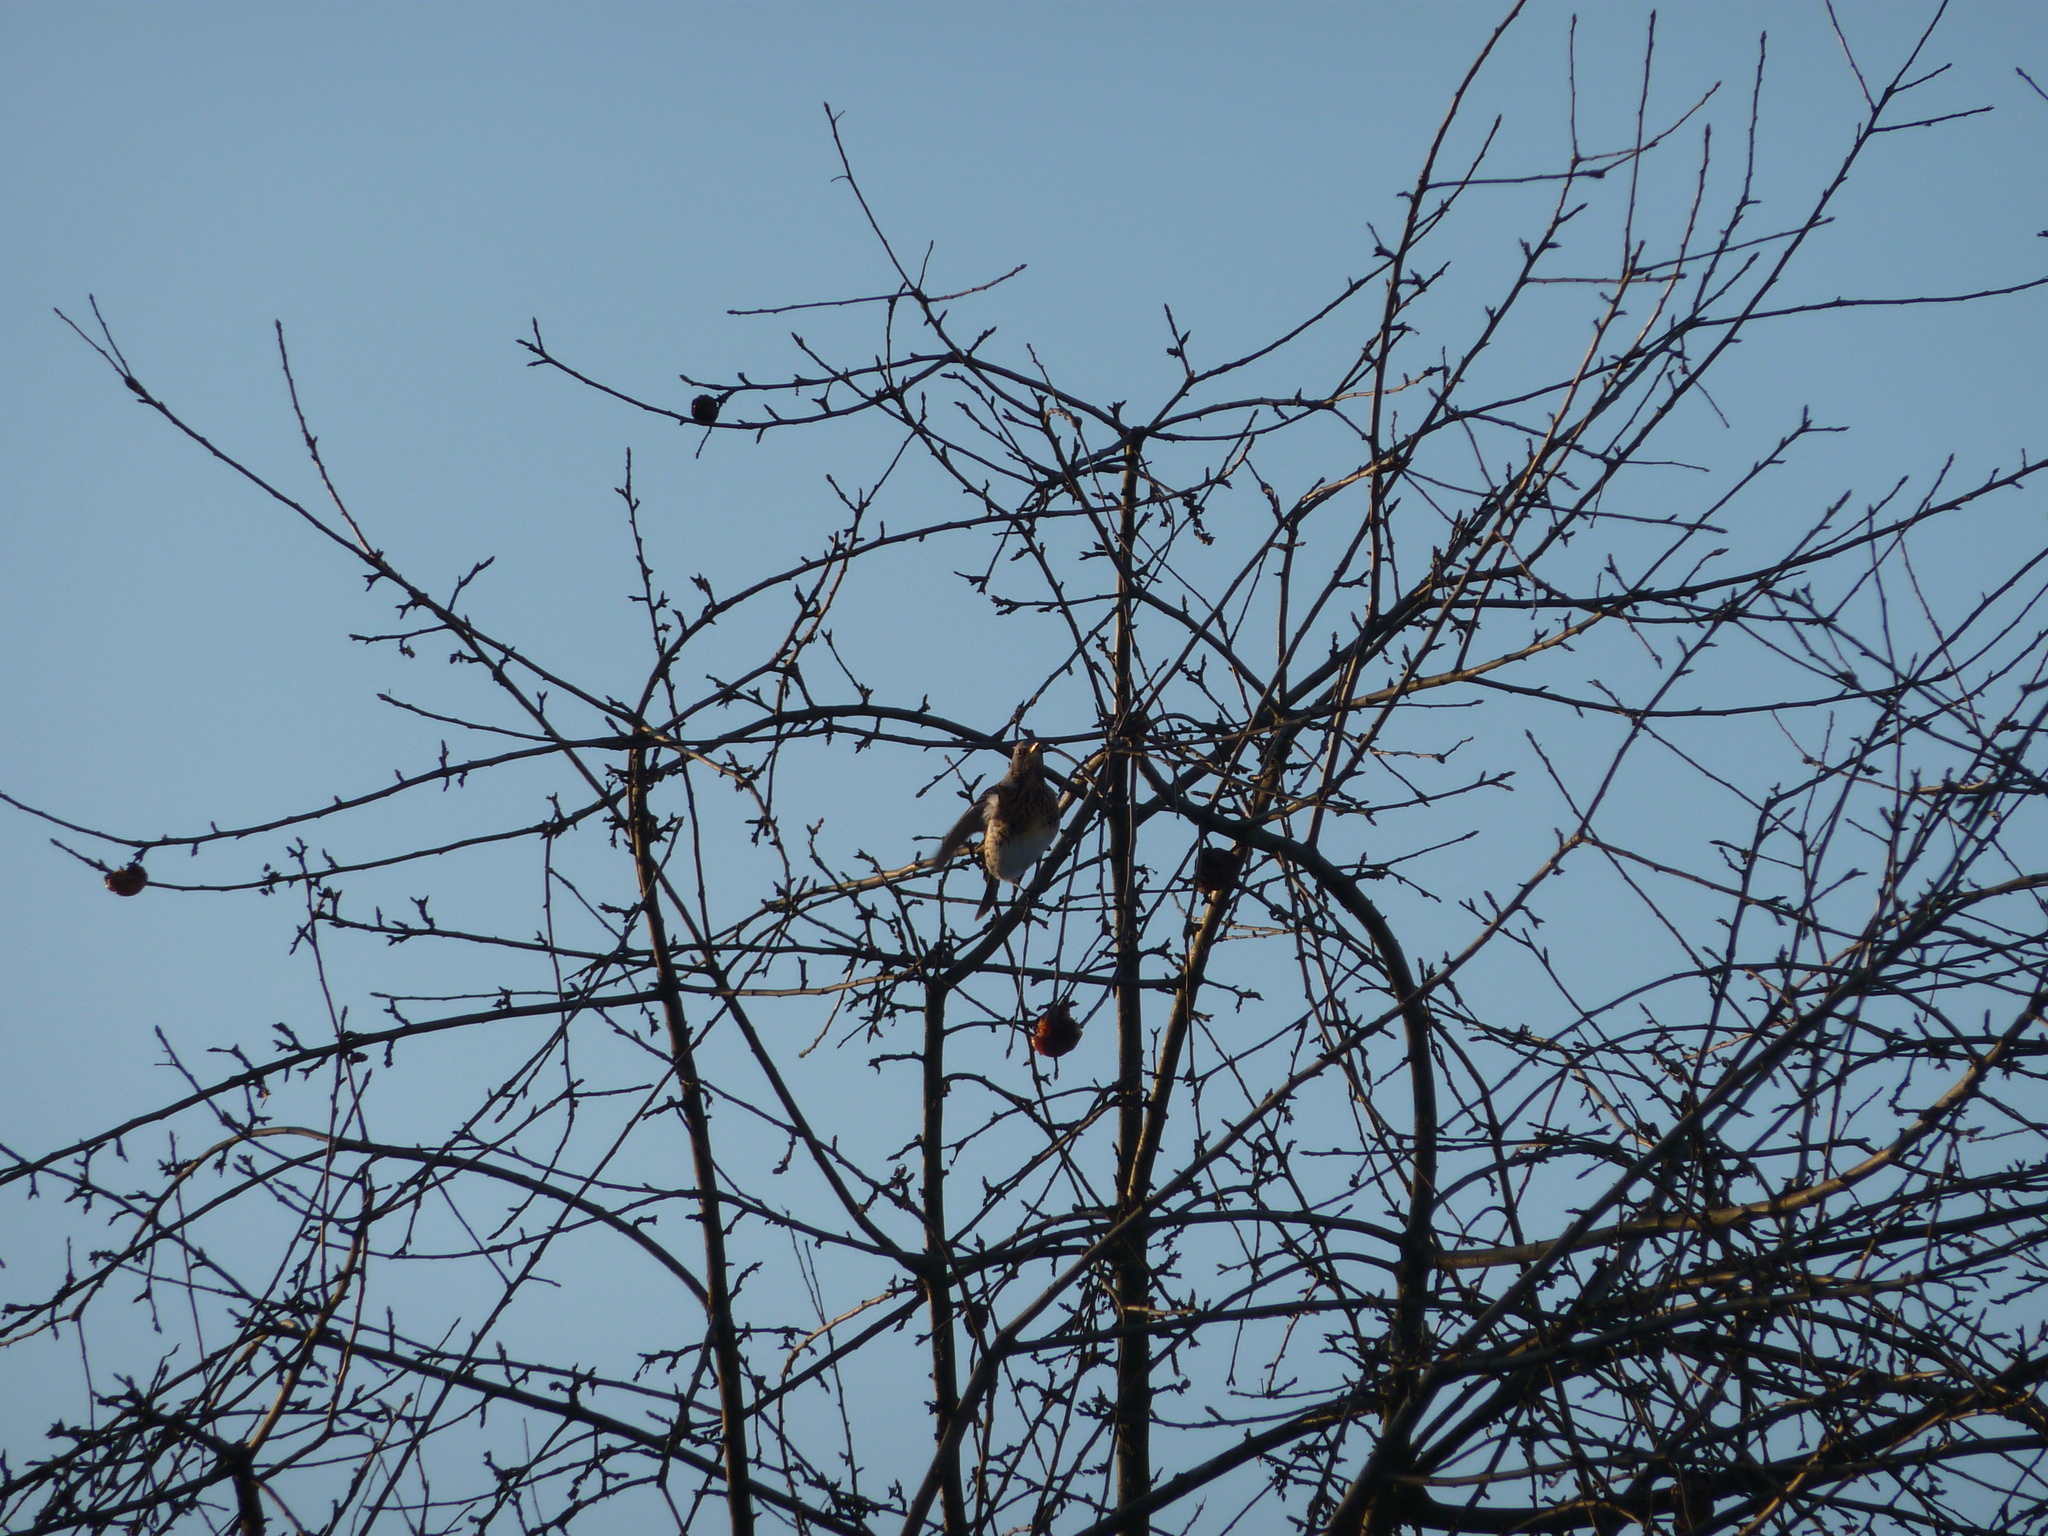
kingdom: Animalia
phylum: Chordata
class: Aves
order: Passeriformes
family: Turdidae
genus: Turdus
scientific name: Turdus pilaris
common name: Fieldfare
